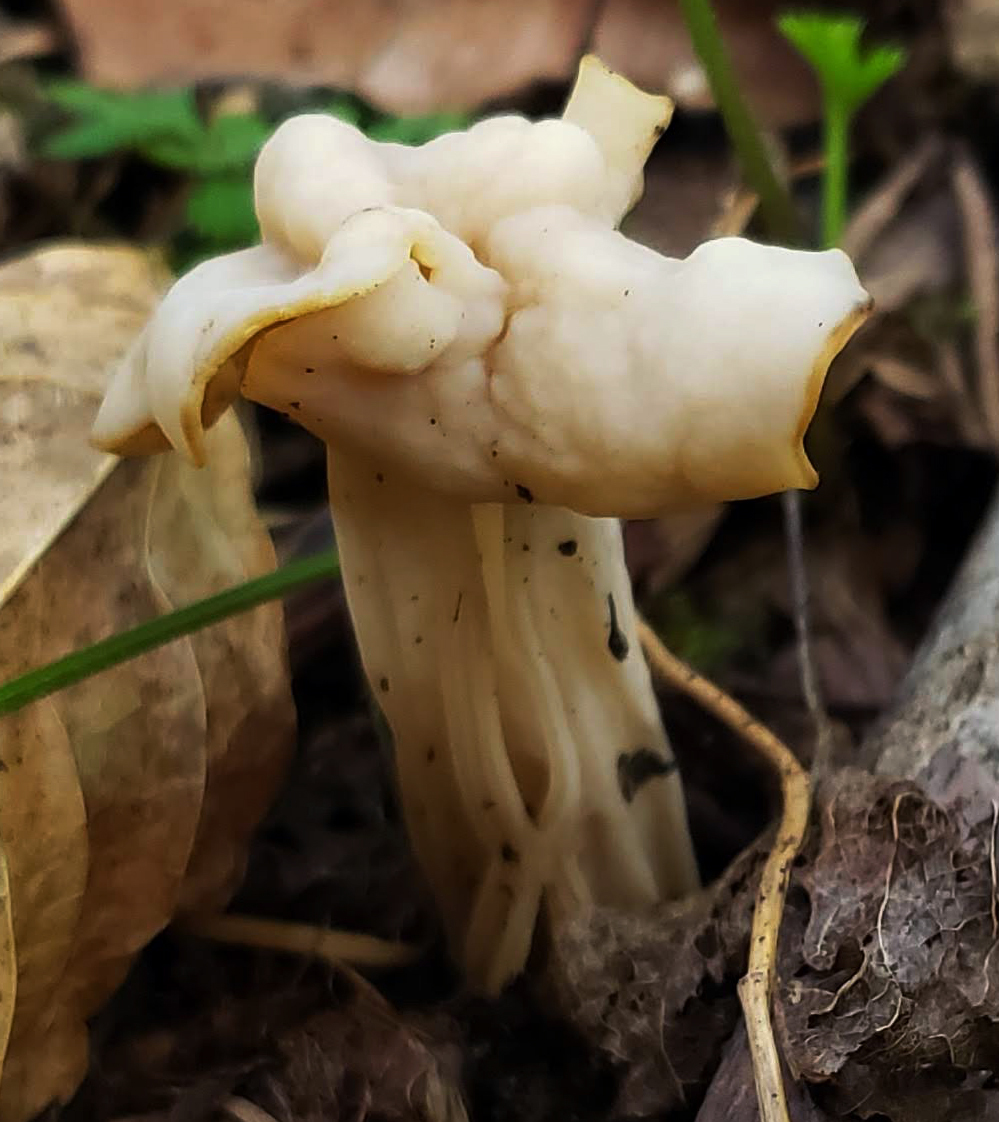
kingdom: Fungi
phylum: Ascomycota
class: Pezizomycetes
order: Pezizales
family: Helvellaceae
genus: Helvella
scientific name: Helvella crispa
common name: White saddle
